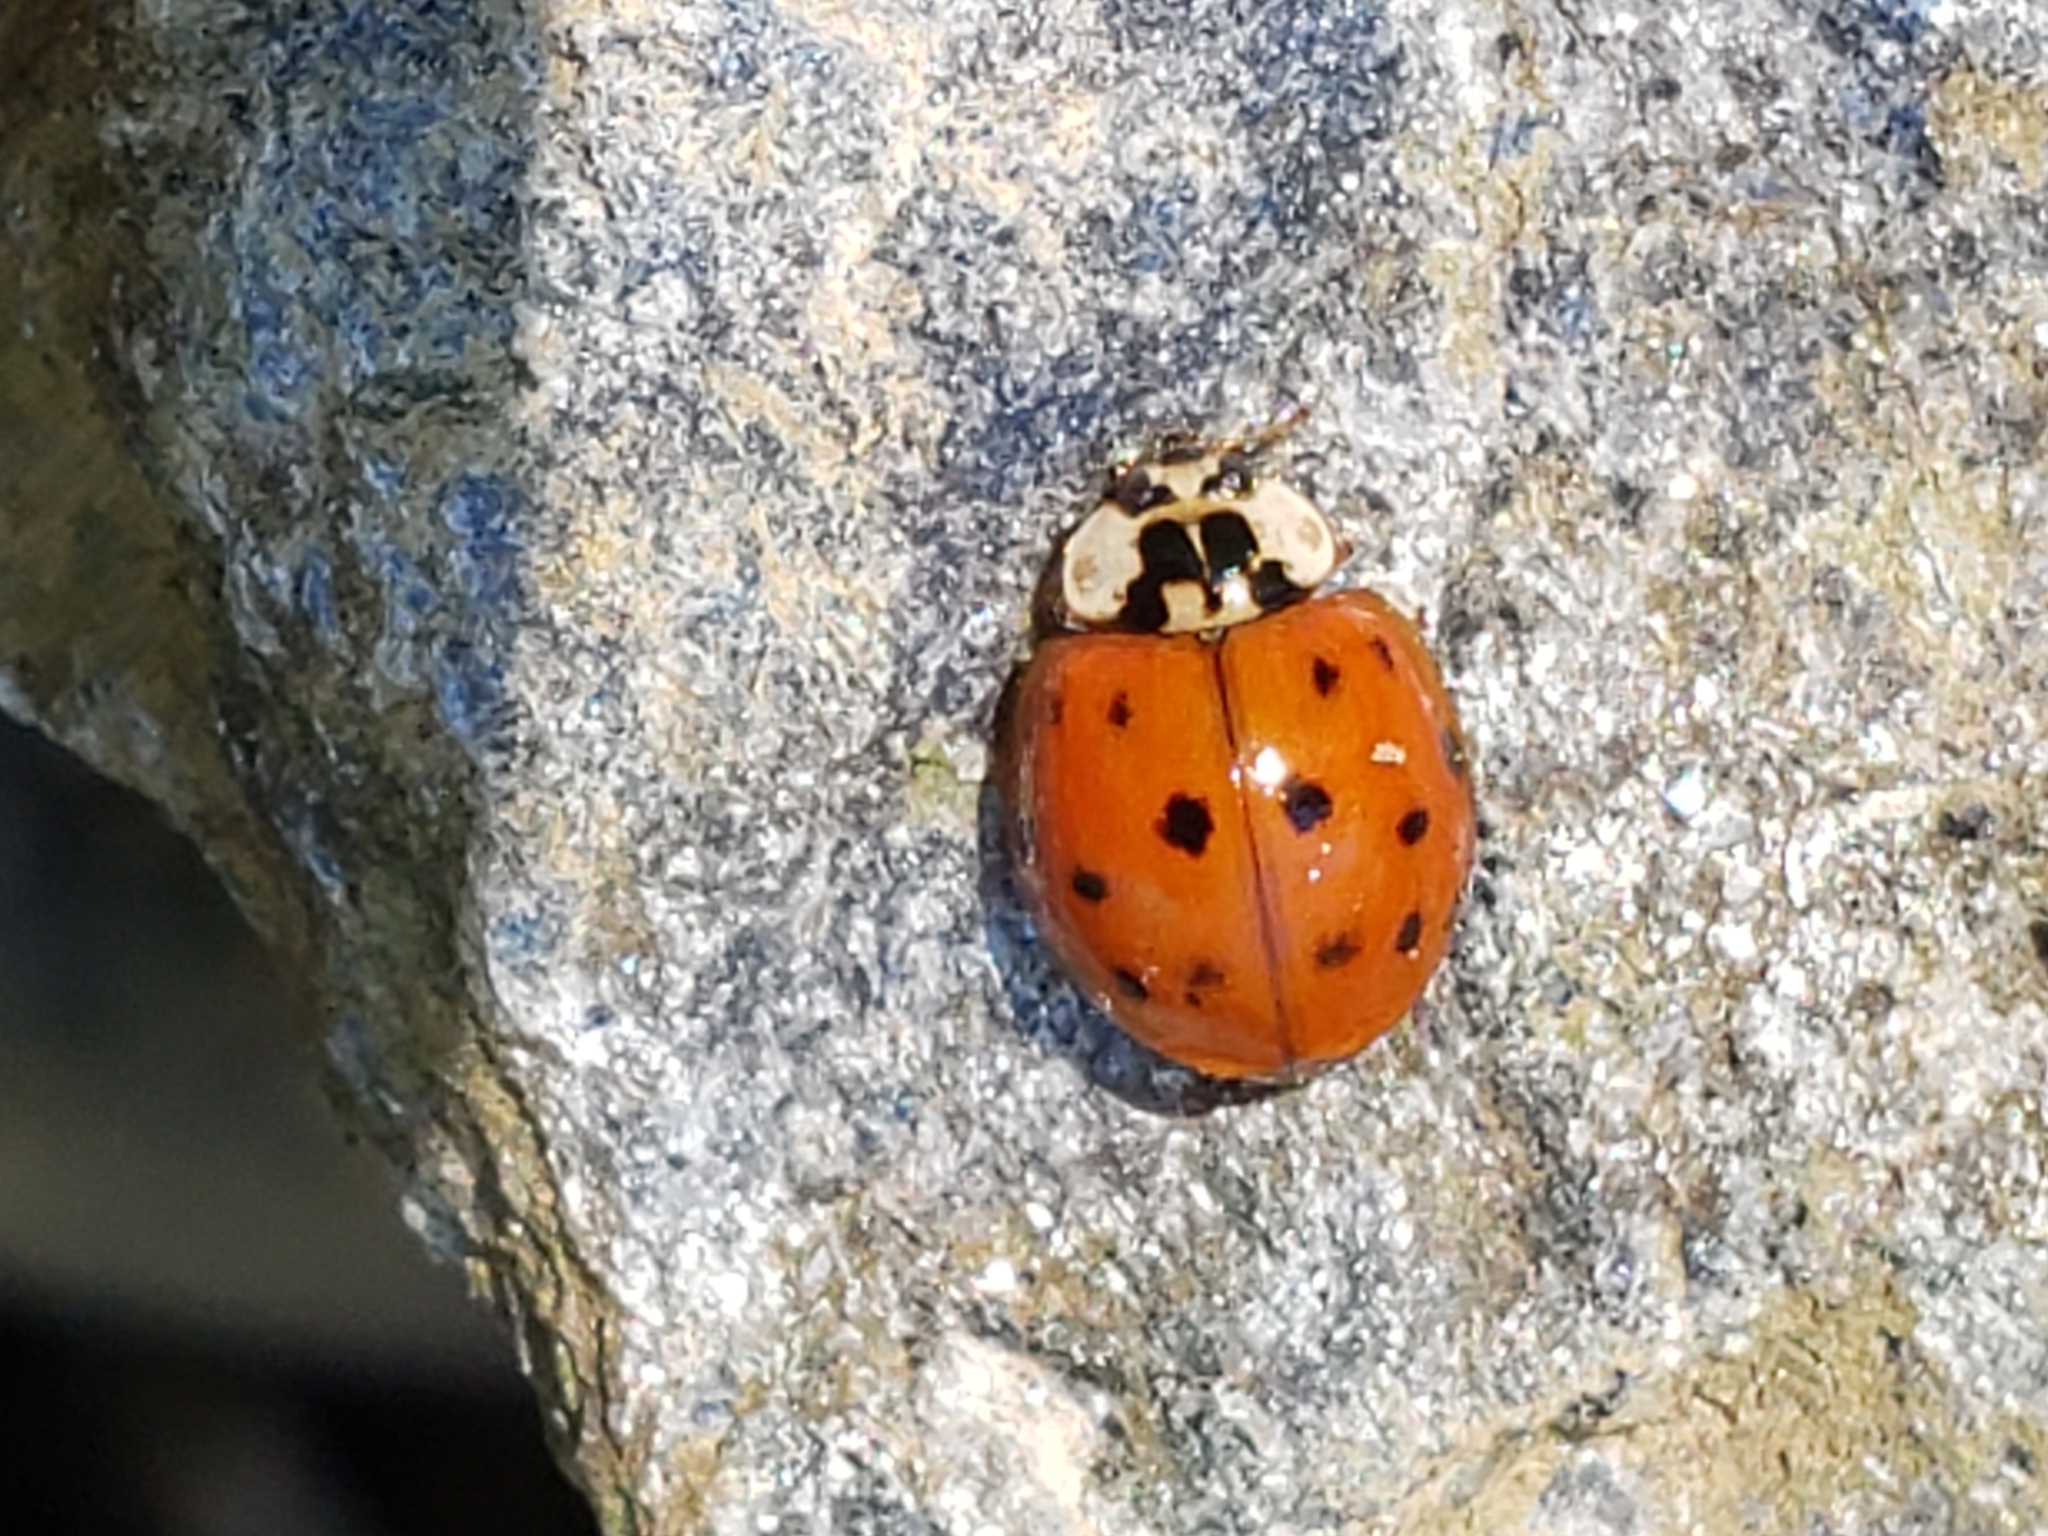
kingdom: Animalia
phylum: Arthropoda
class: Insecta
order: Coleoptera
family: Coccinellidae
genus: Harmonia
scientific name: Harmonia axyridis
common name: Harlequin ladybird
